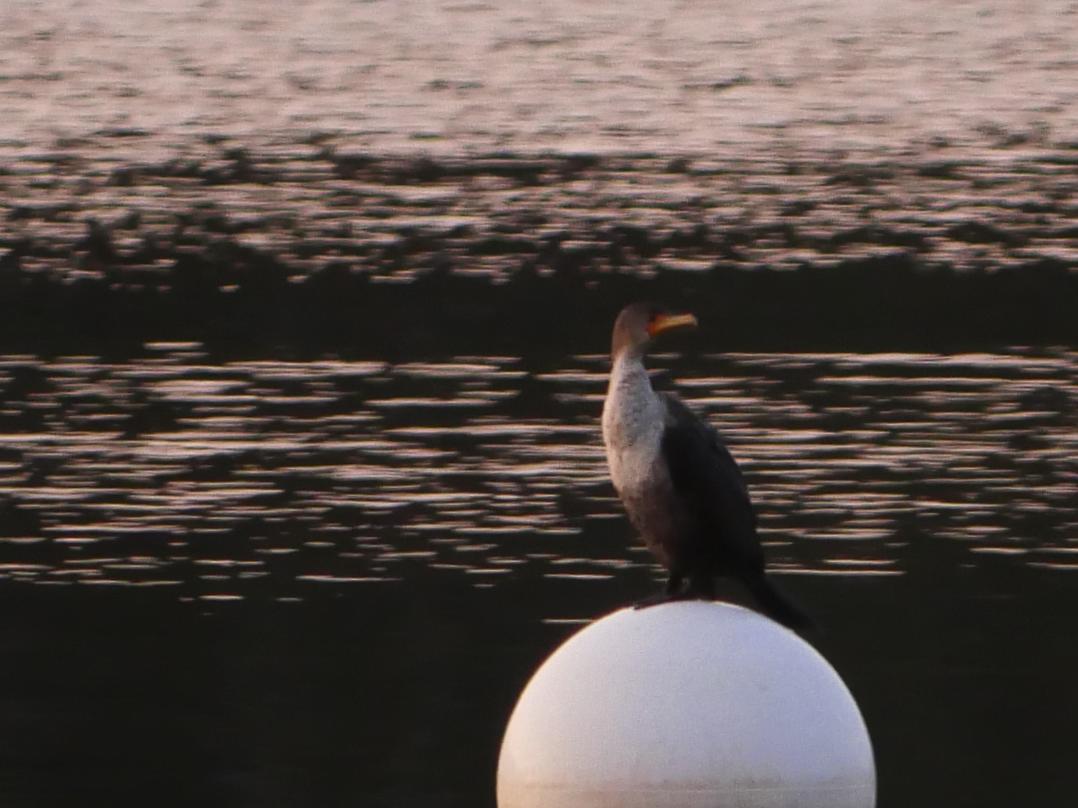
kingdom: Animalia
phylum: Chordata
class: Aves
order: Suliformes
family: Phalacrocoracidae
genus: Phalacrocorax
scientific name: Phalacrocorax auritus
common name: Double-crested cormorant
